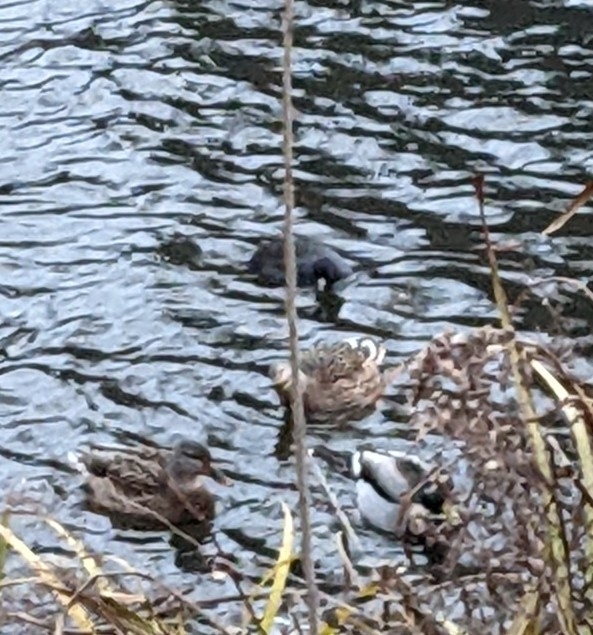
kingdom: Animalia
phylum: Chordata
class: Aves
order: Gruiformes
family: Rallidae
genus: Fulica
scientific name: Fulica americana
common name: American coot
